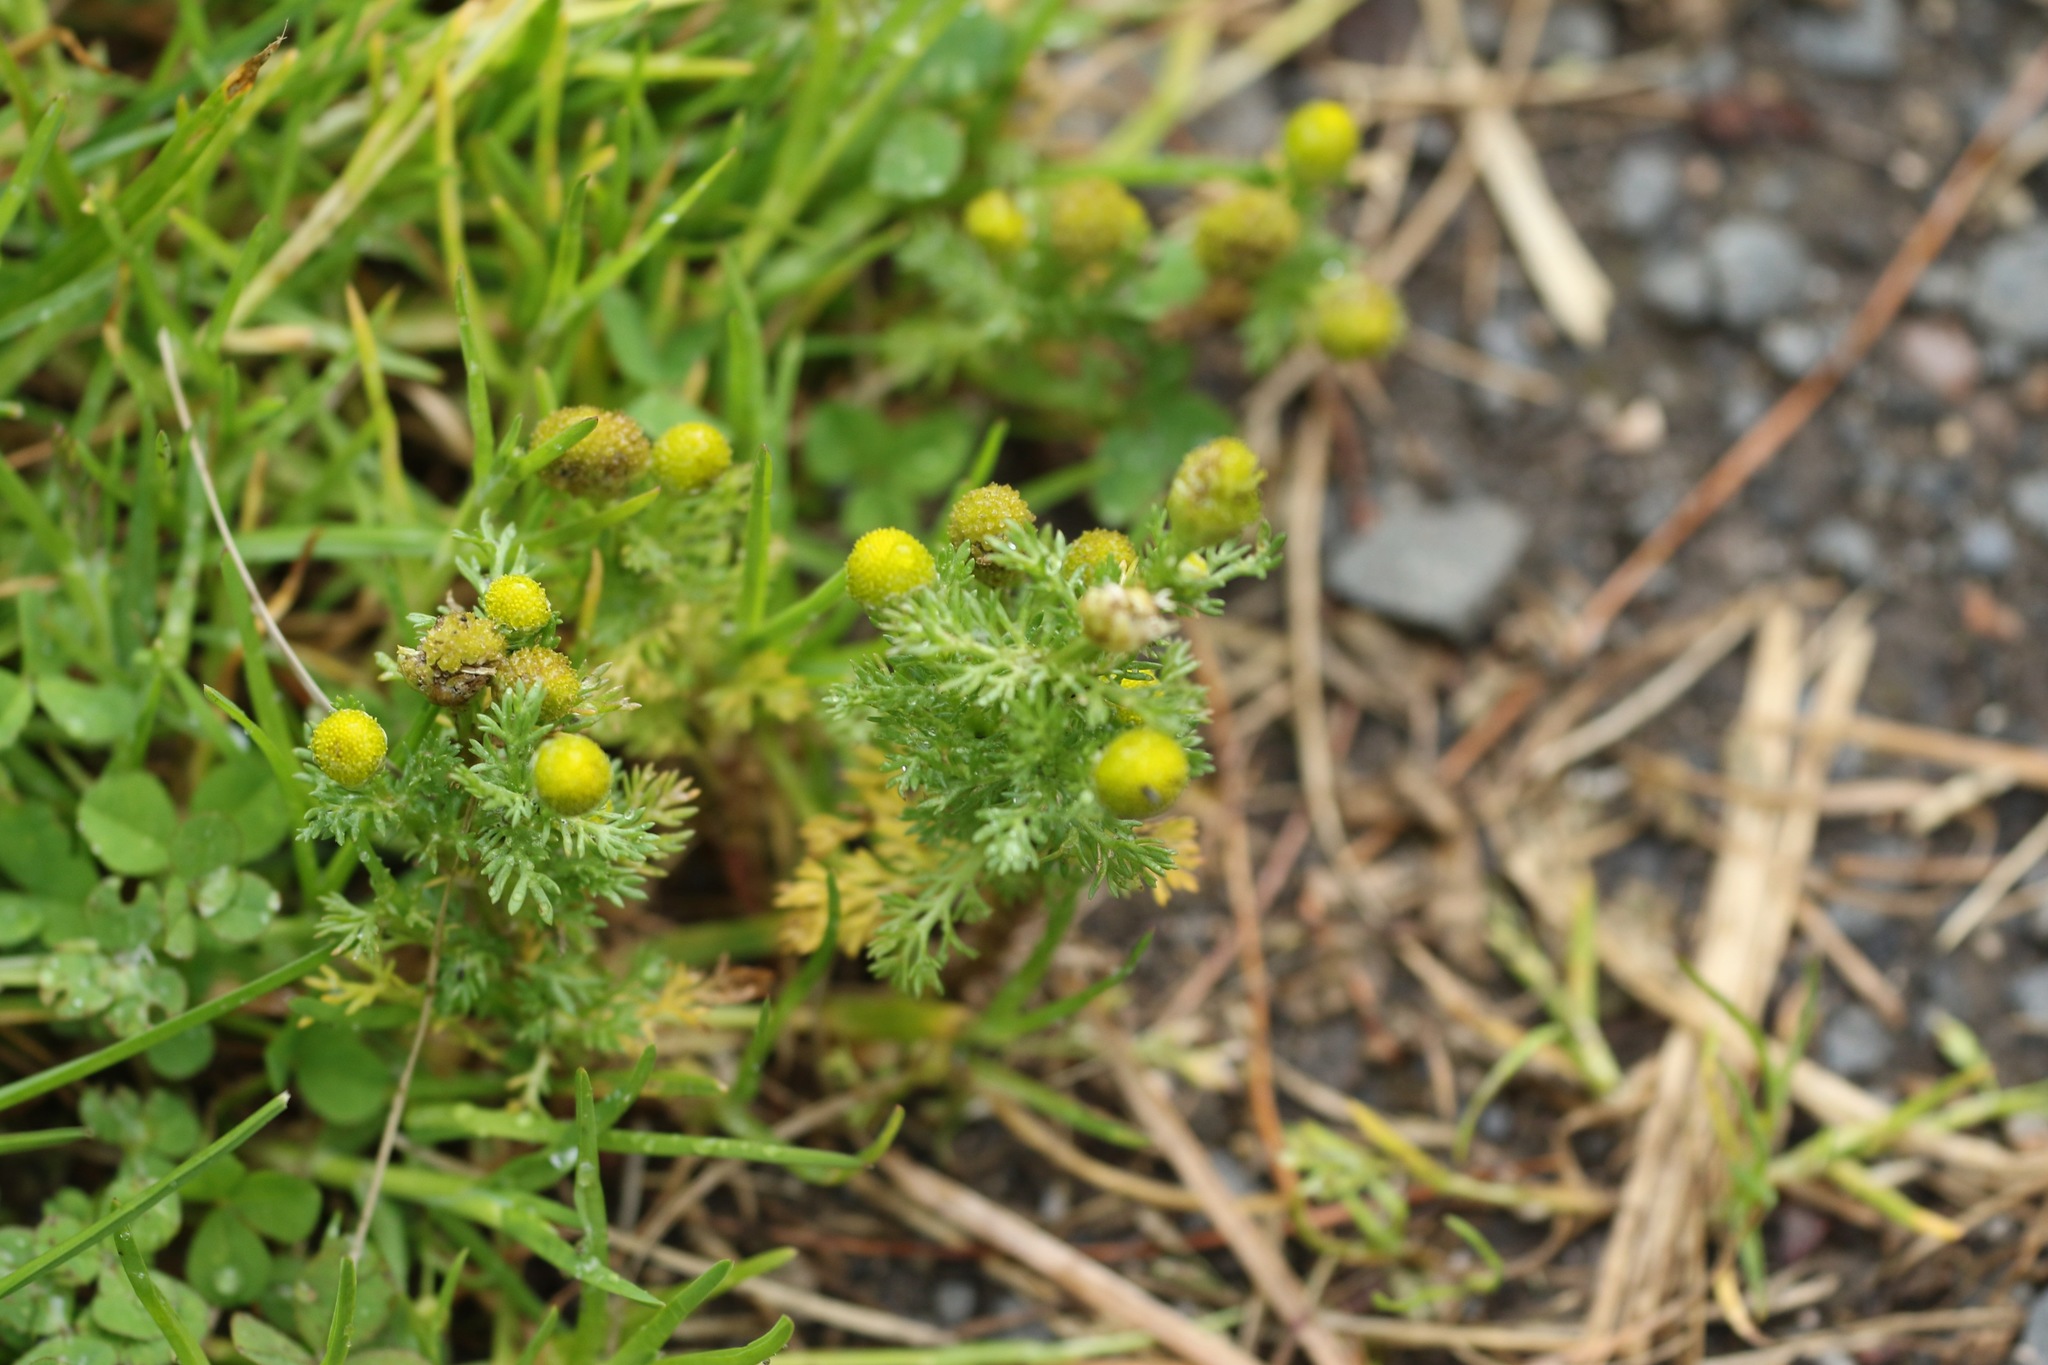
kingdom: Plantae
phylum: Tracheophyta
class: Magnoliopsida
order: Asterales
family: Asteraceae
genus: Matricaria
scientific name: Matricaria discoidea
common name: Disc mayweed
